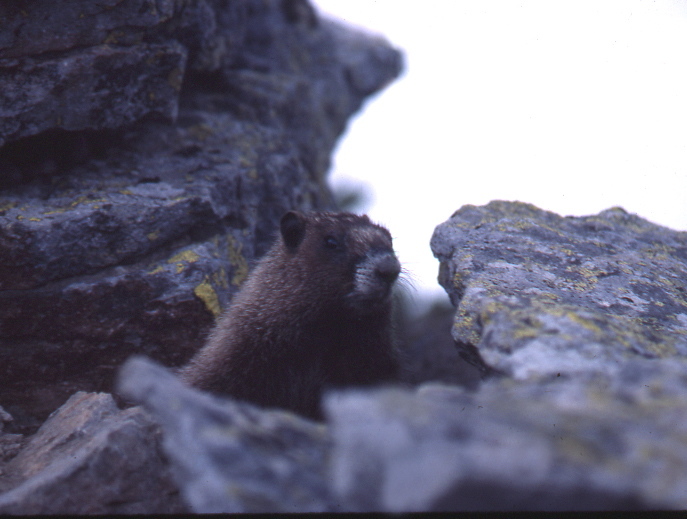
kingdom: Animalia
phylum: Chordata
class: Mammalia
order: Rodentia
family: Sciuridae
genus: Marmota
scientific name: Marmota caligata
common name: Hoary marmot
